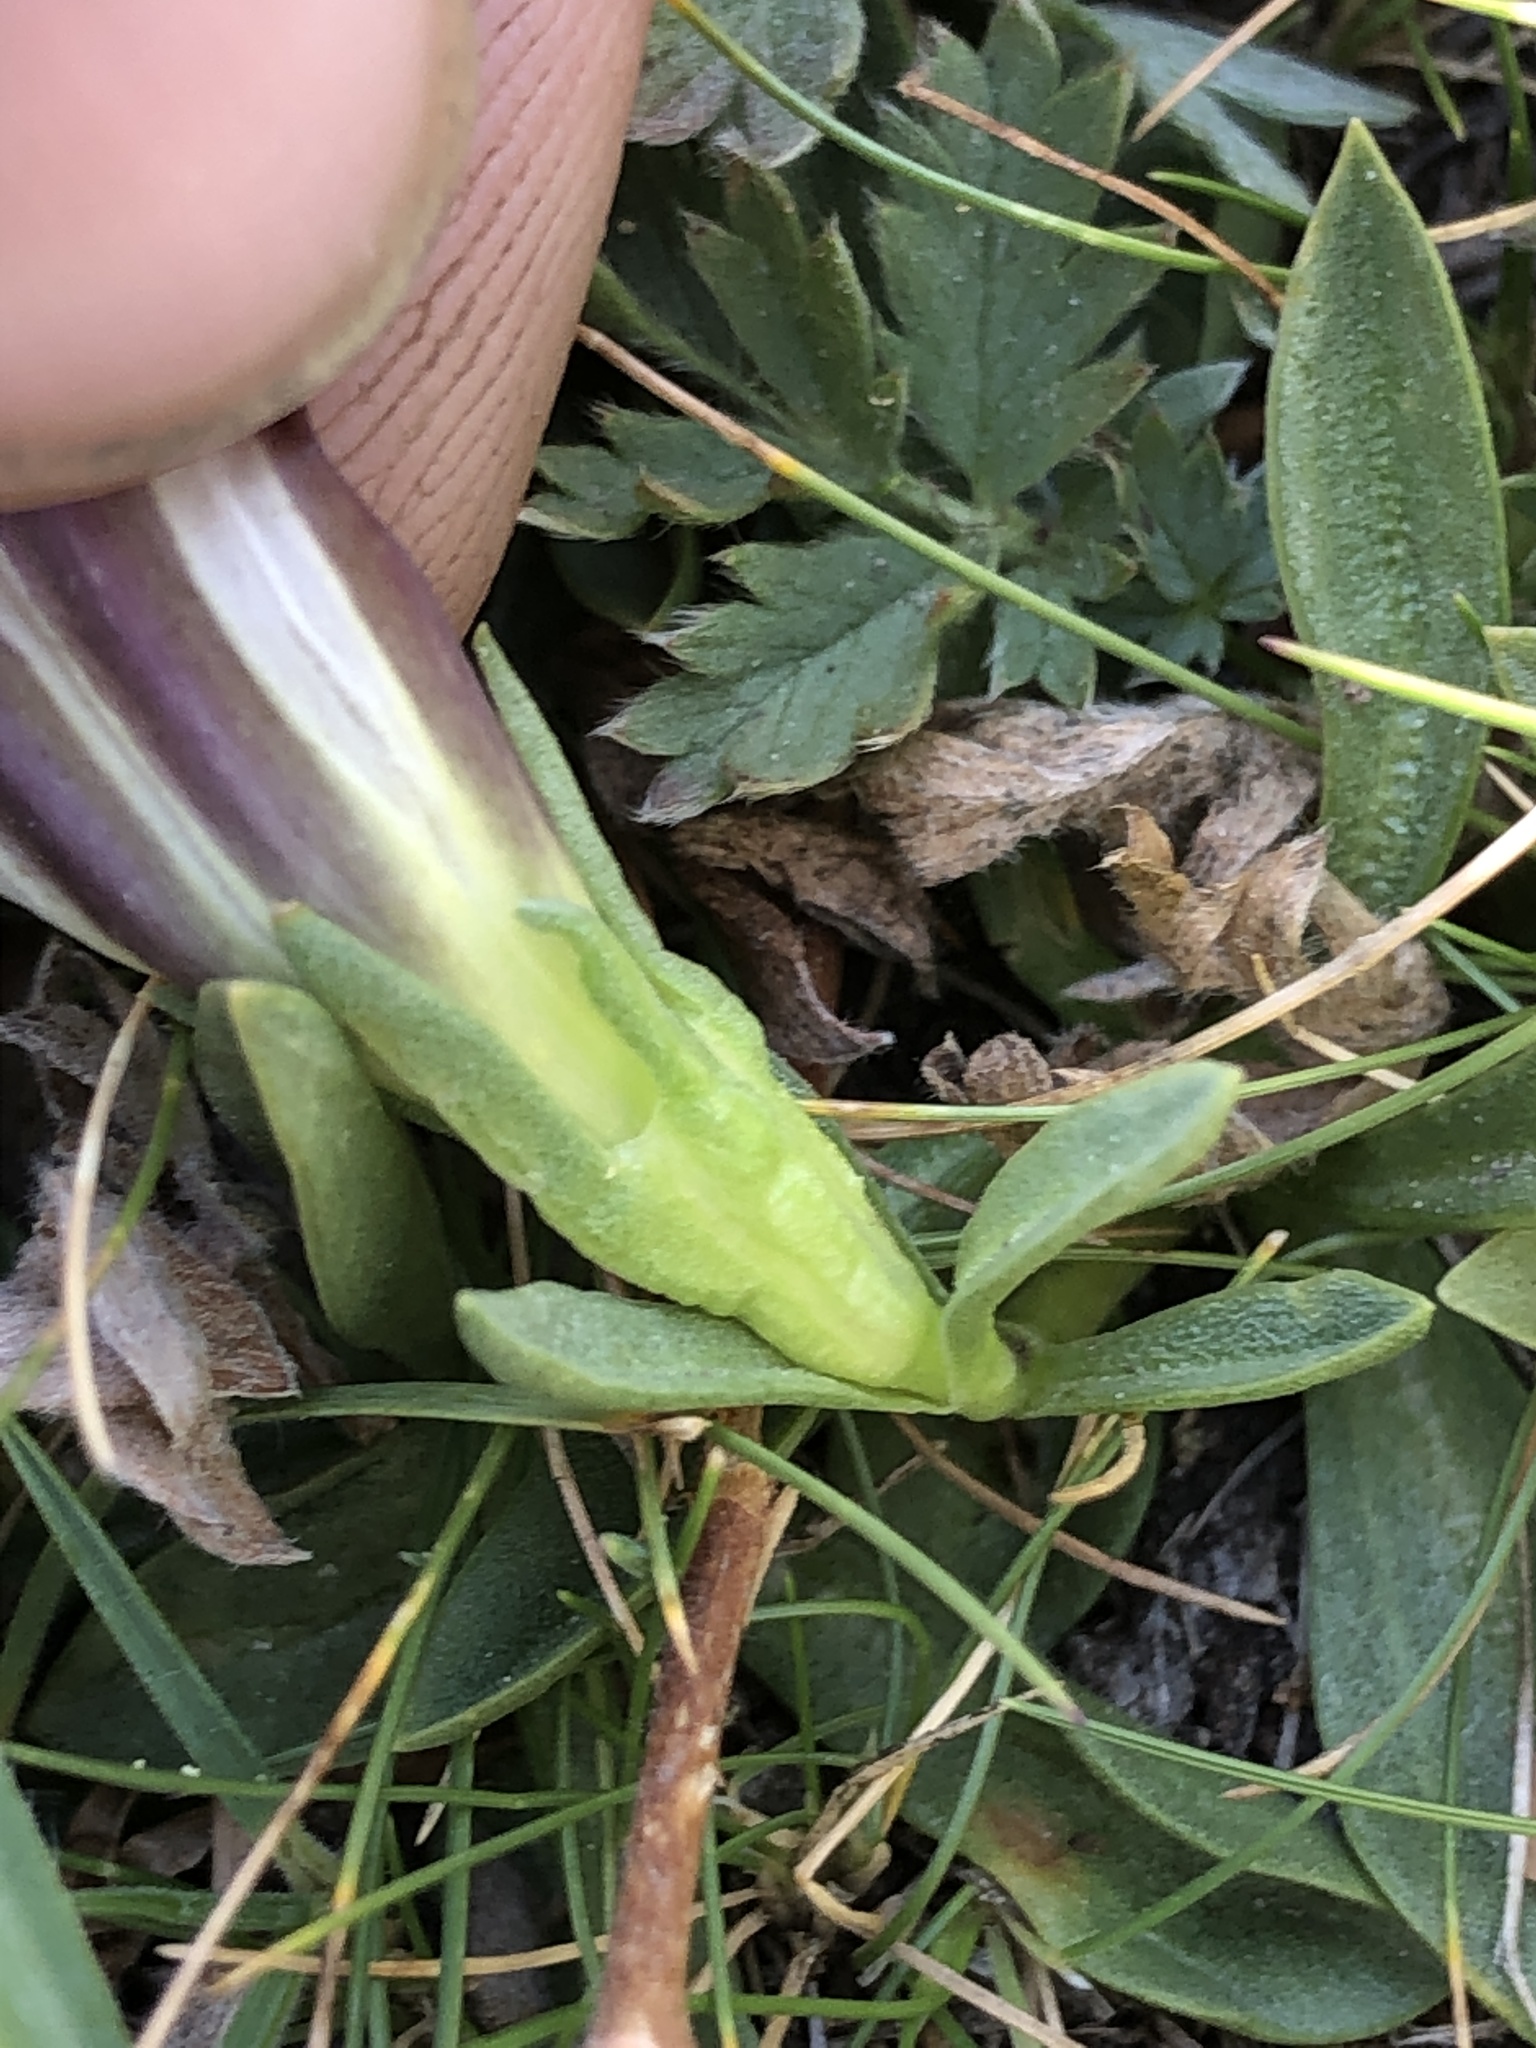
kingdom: Plantae
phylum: Tracheophyta
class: Magnoliopsida
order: Gentianales
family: Gentianaceae
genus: Gentiana
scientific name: Gentiana newberryi
